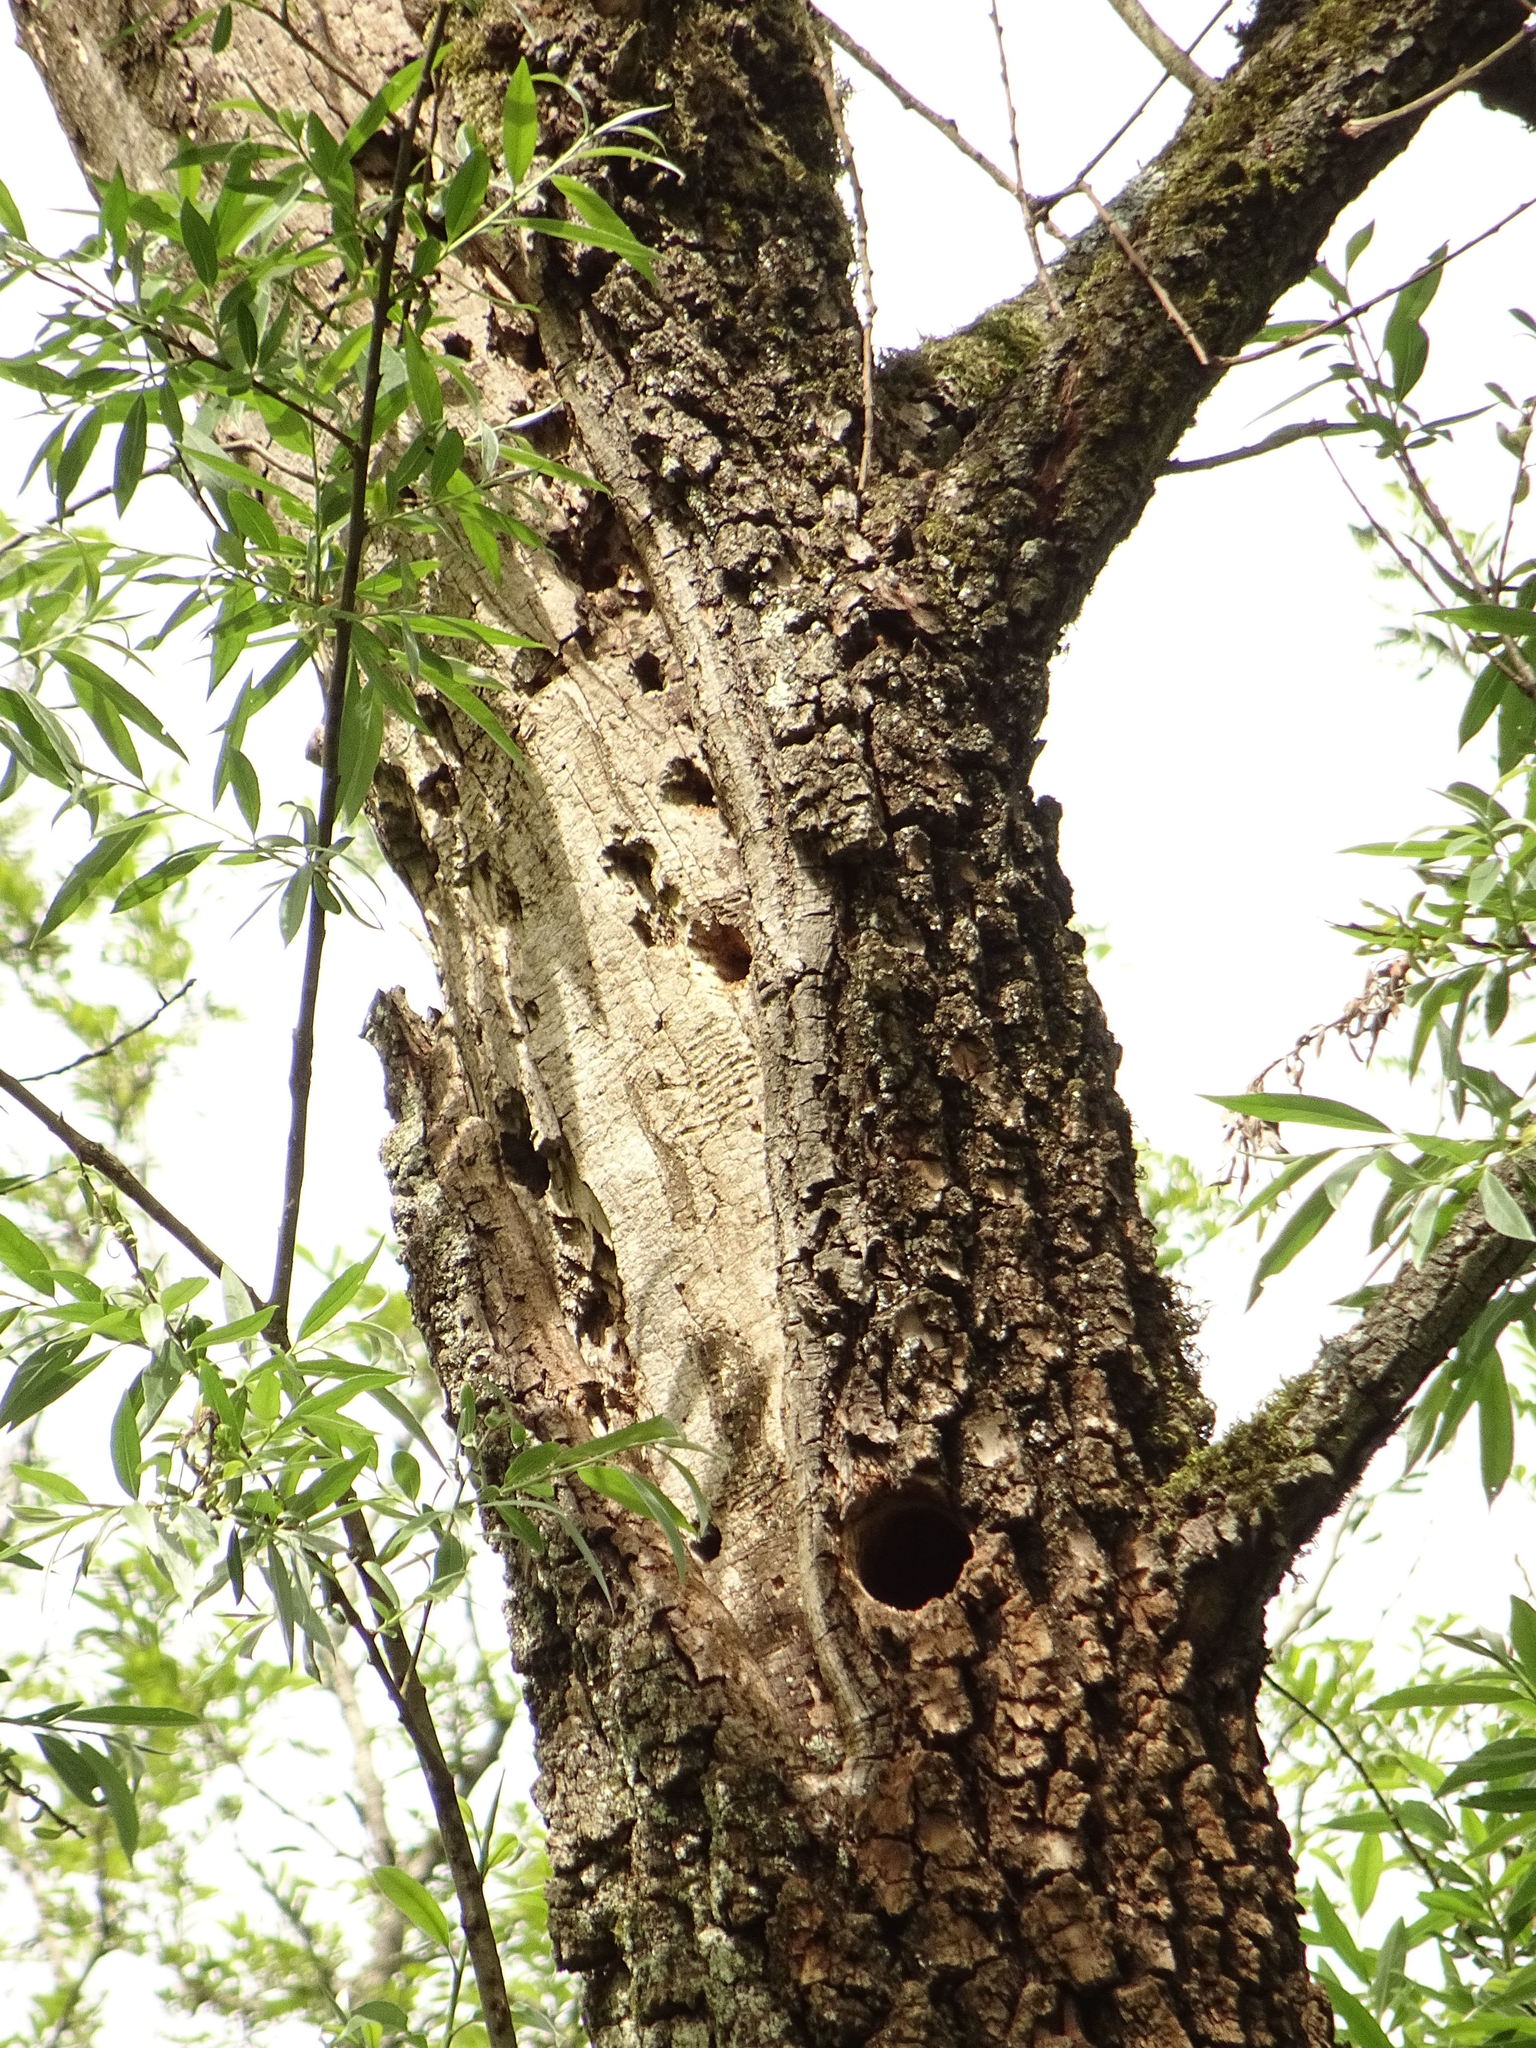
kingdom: Animalia
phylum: Chordata
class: Aves
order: Piciformes
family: Picidae
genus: Dendrocopos
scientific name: Dendrocopos major
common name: Great spotted woodpecker
